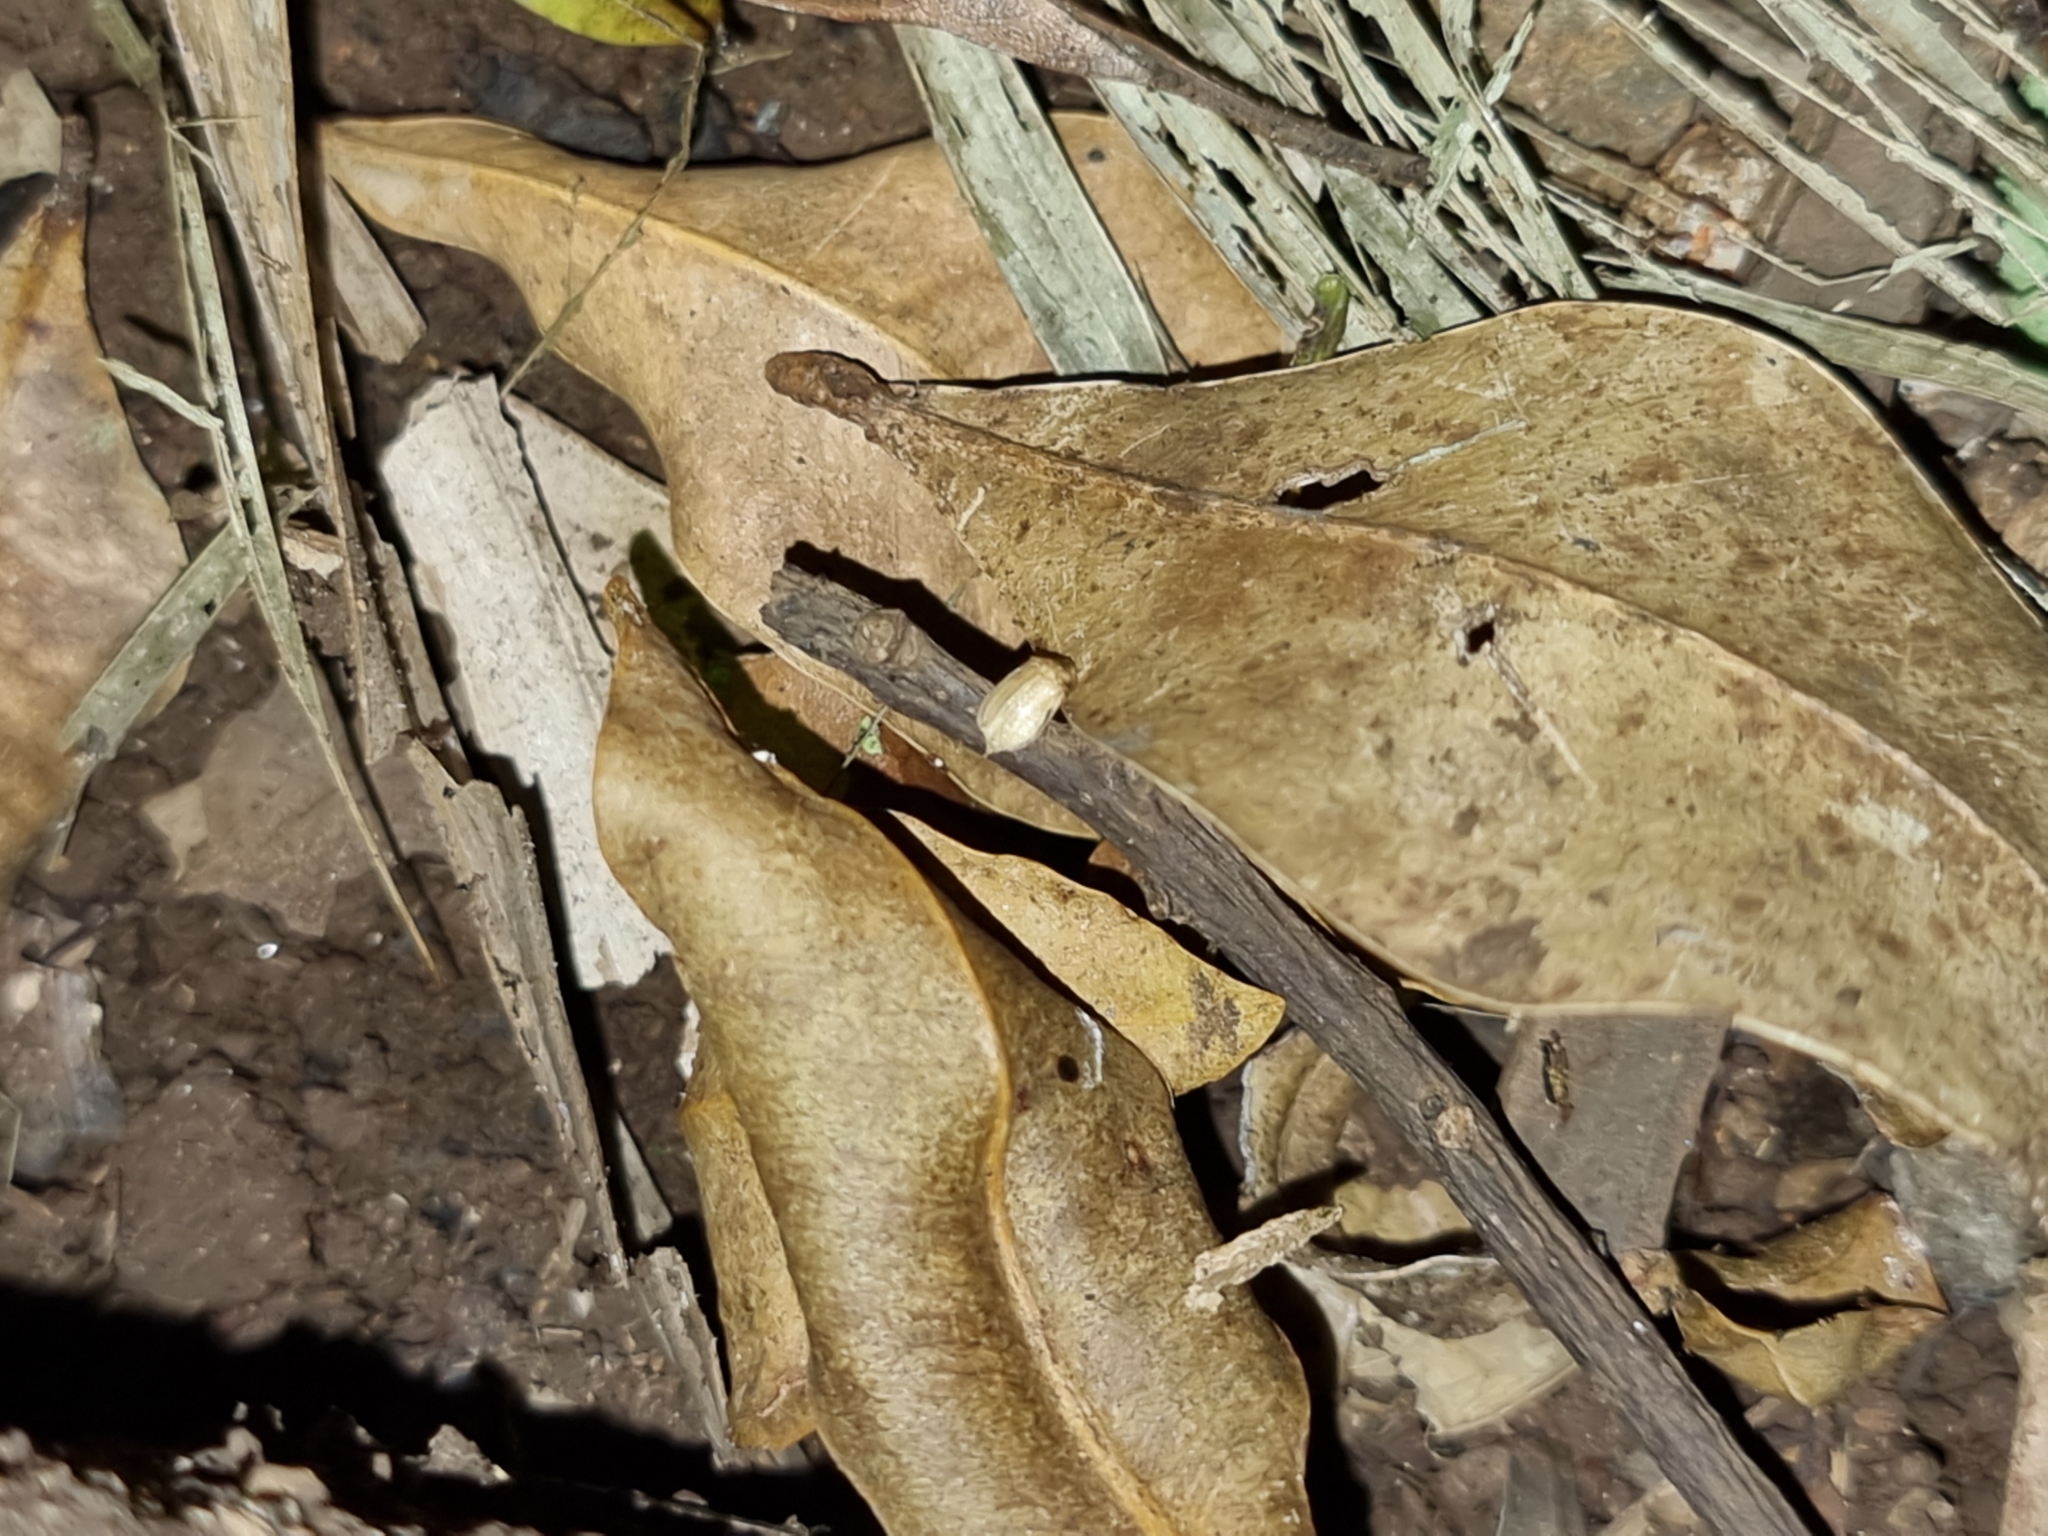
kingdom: Animalia
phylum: Arthropoda
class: Insecta
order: Coleoptera
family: Lampyridae
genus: Atyphella
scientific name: Atyphella atra
